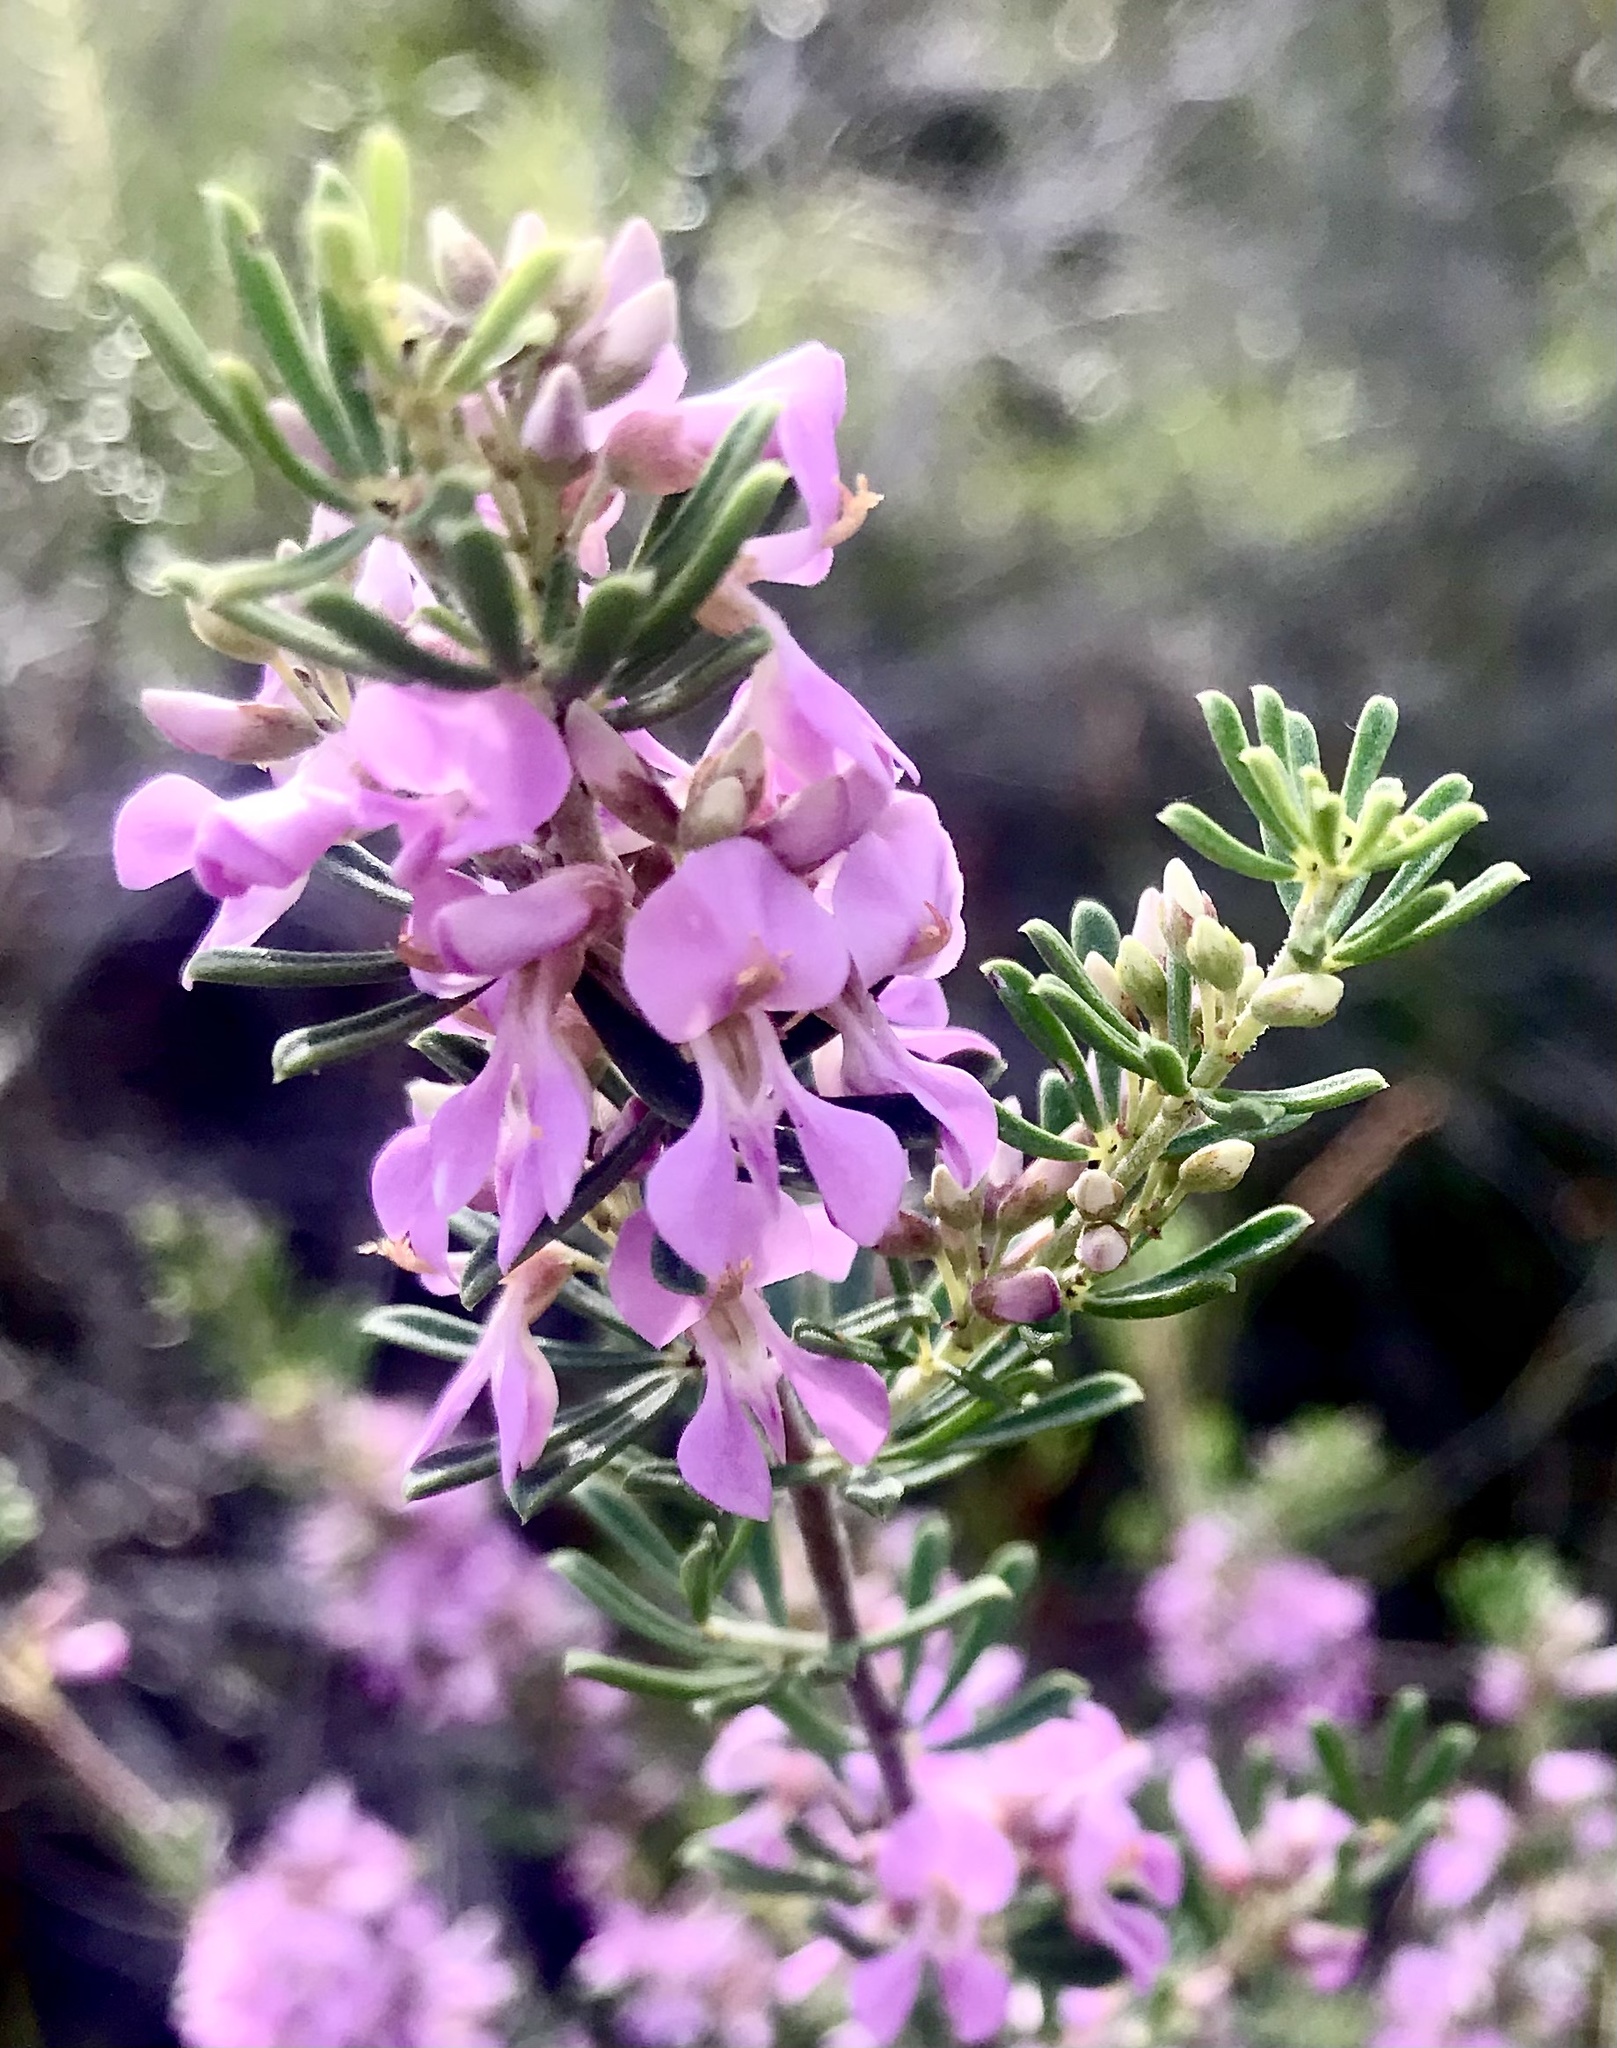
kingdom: Plantae
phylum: Tracheophyta
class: Magnoliopsida
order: Fabales
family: Fabaceae
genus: Indigofera
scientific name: Indigofera flabellata
